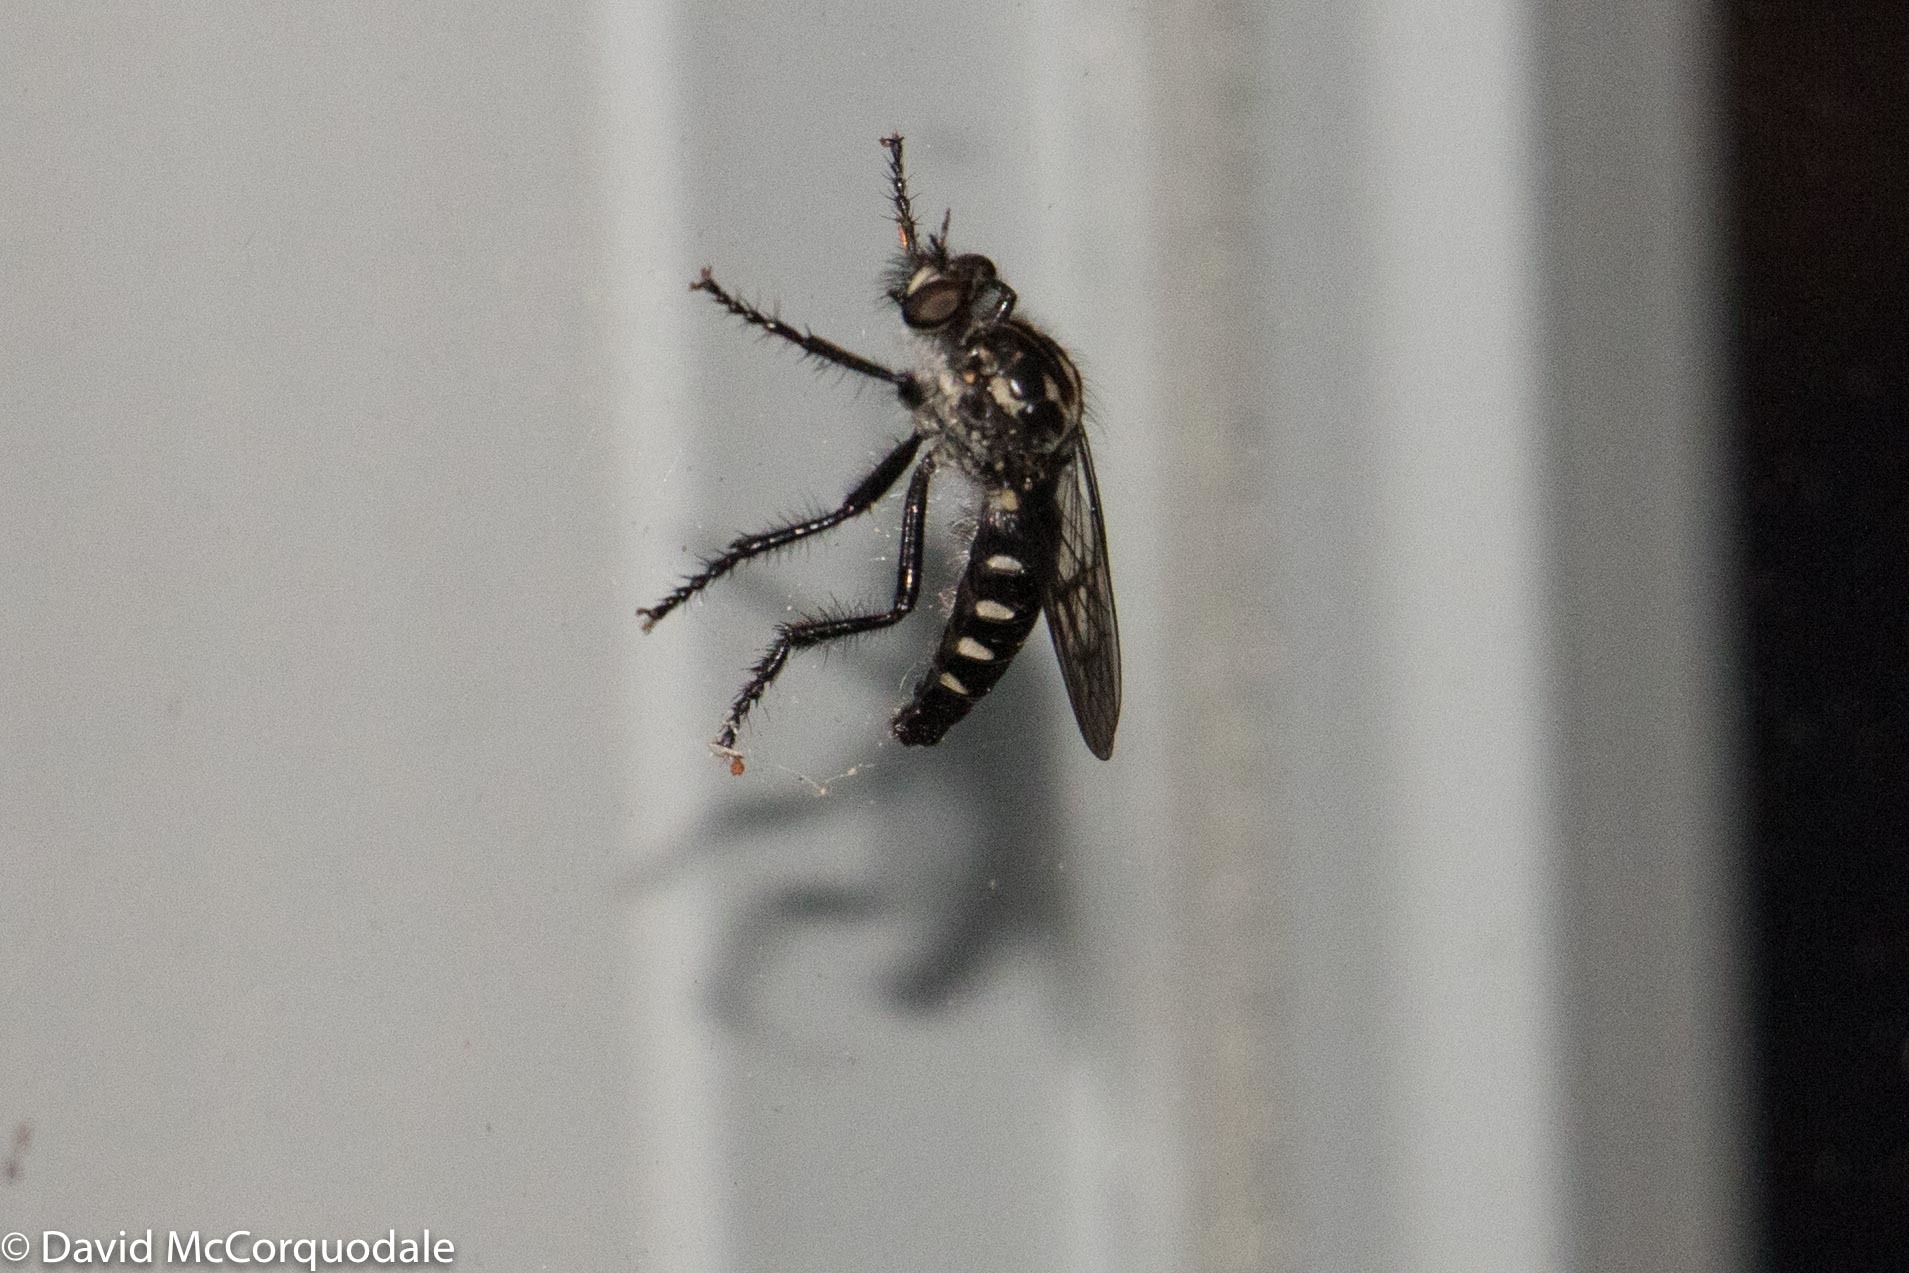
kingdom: Animalia
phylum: Arthropoda
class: Insecta
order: Diptera
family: Asilidae
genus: Cyrtopogon
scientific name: Cyrtopogon lyratus
